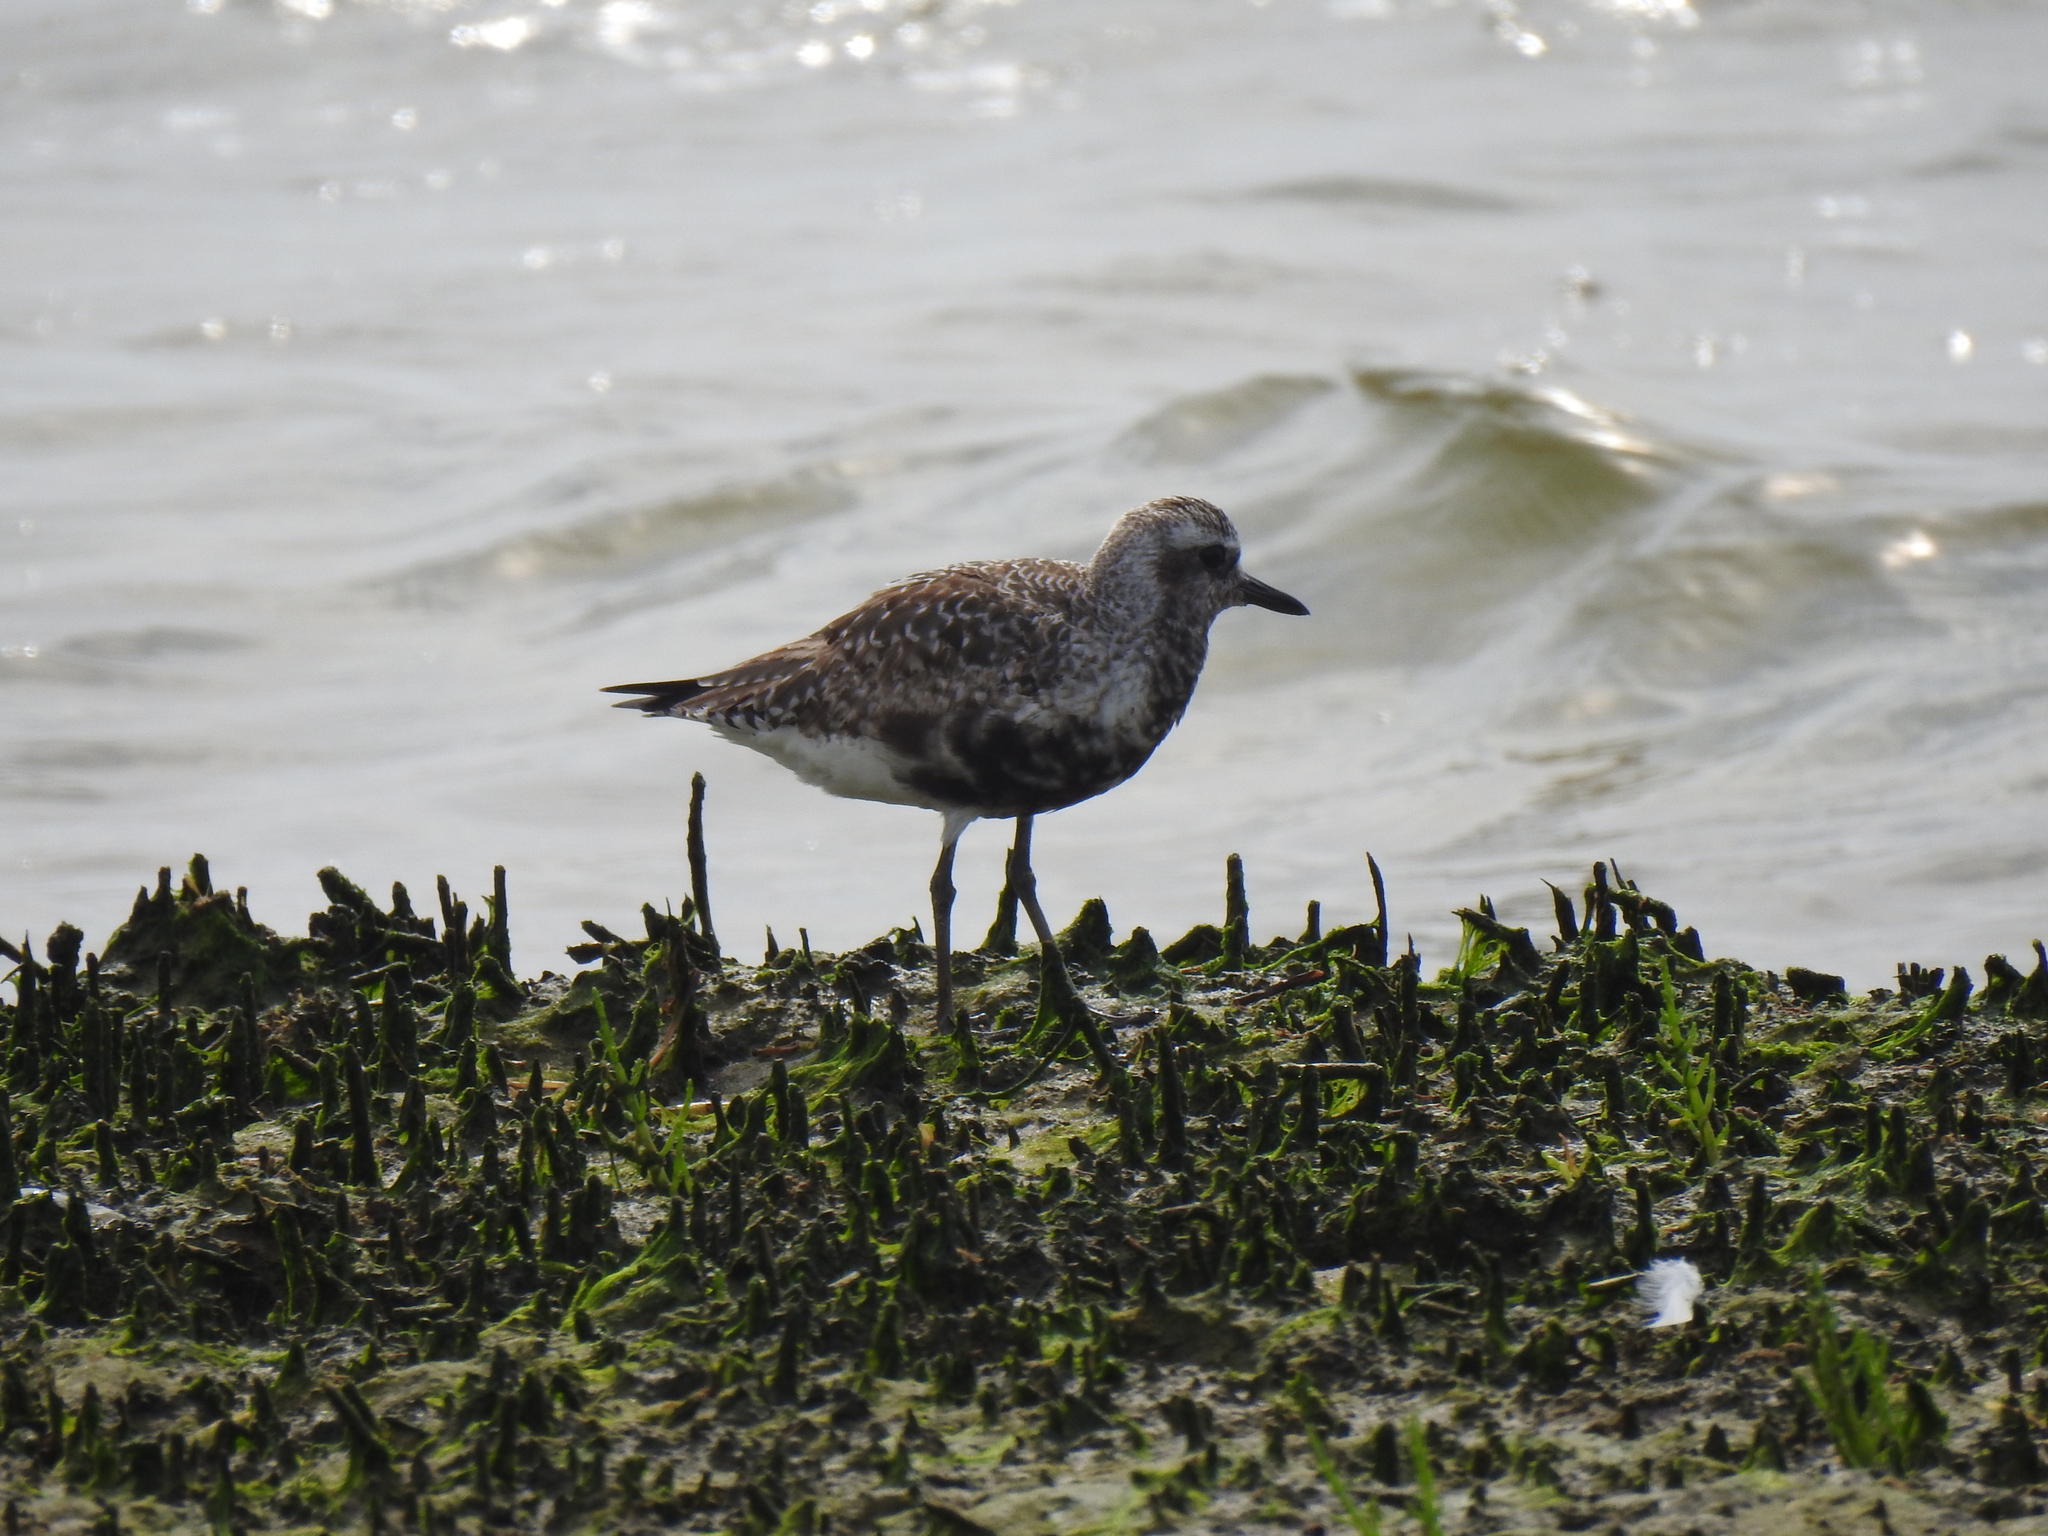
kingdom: Animalia
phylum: Chordata
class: Aves
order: Charadriiformes
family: Charadriidae
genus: Pluvialis
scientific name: Pluvialis squatarola
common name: Grey plover
